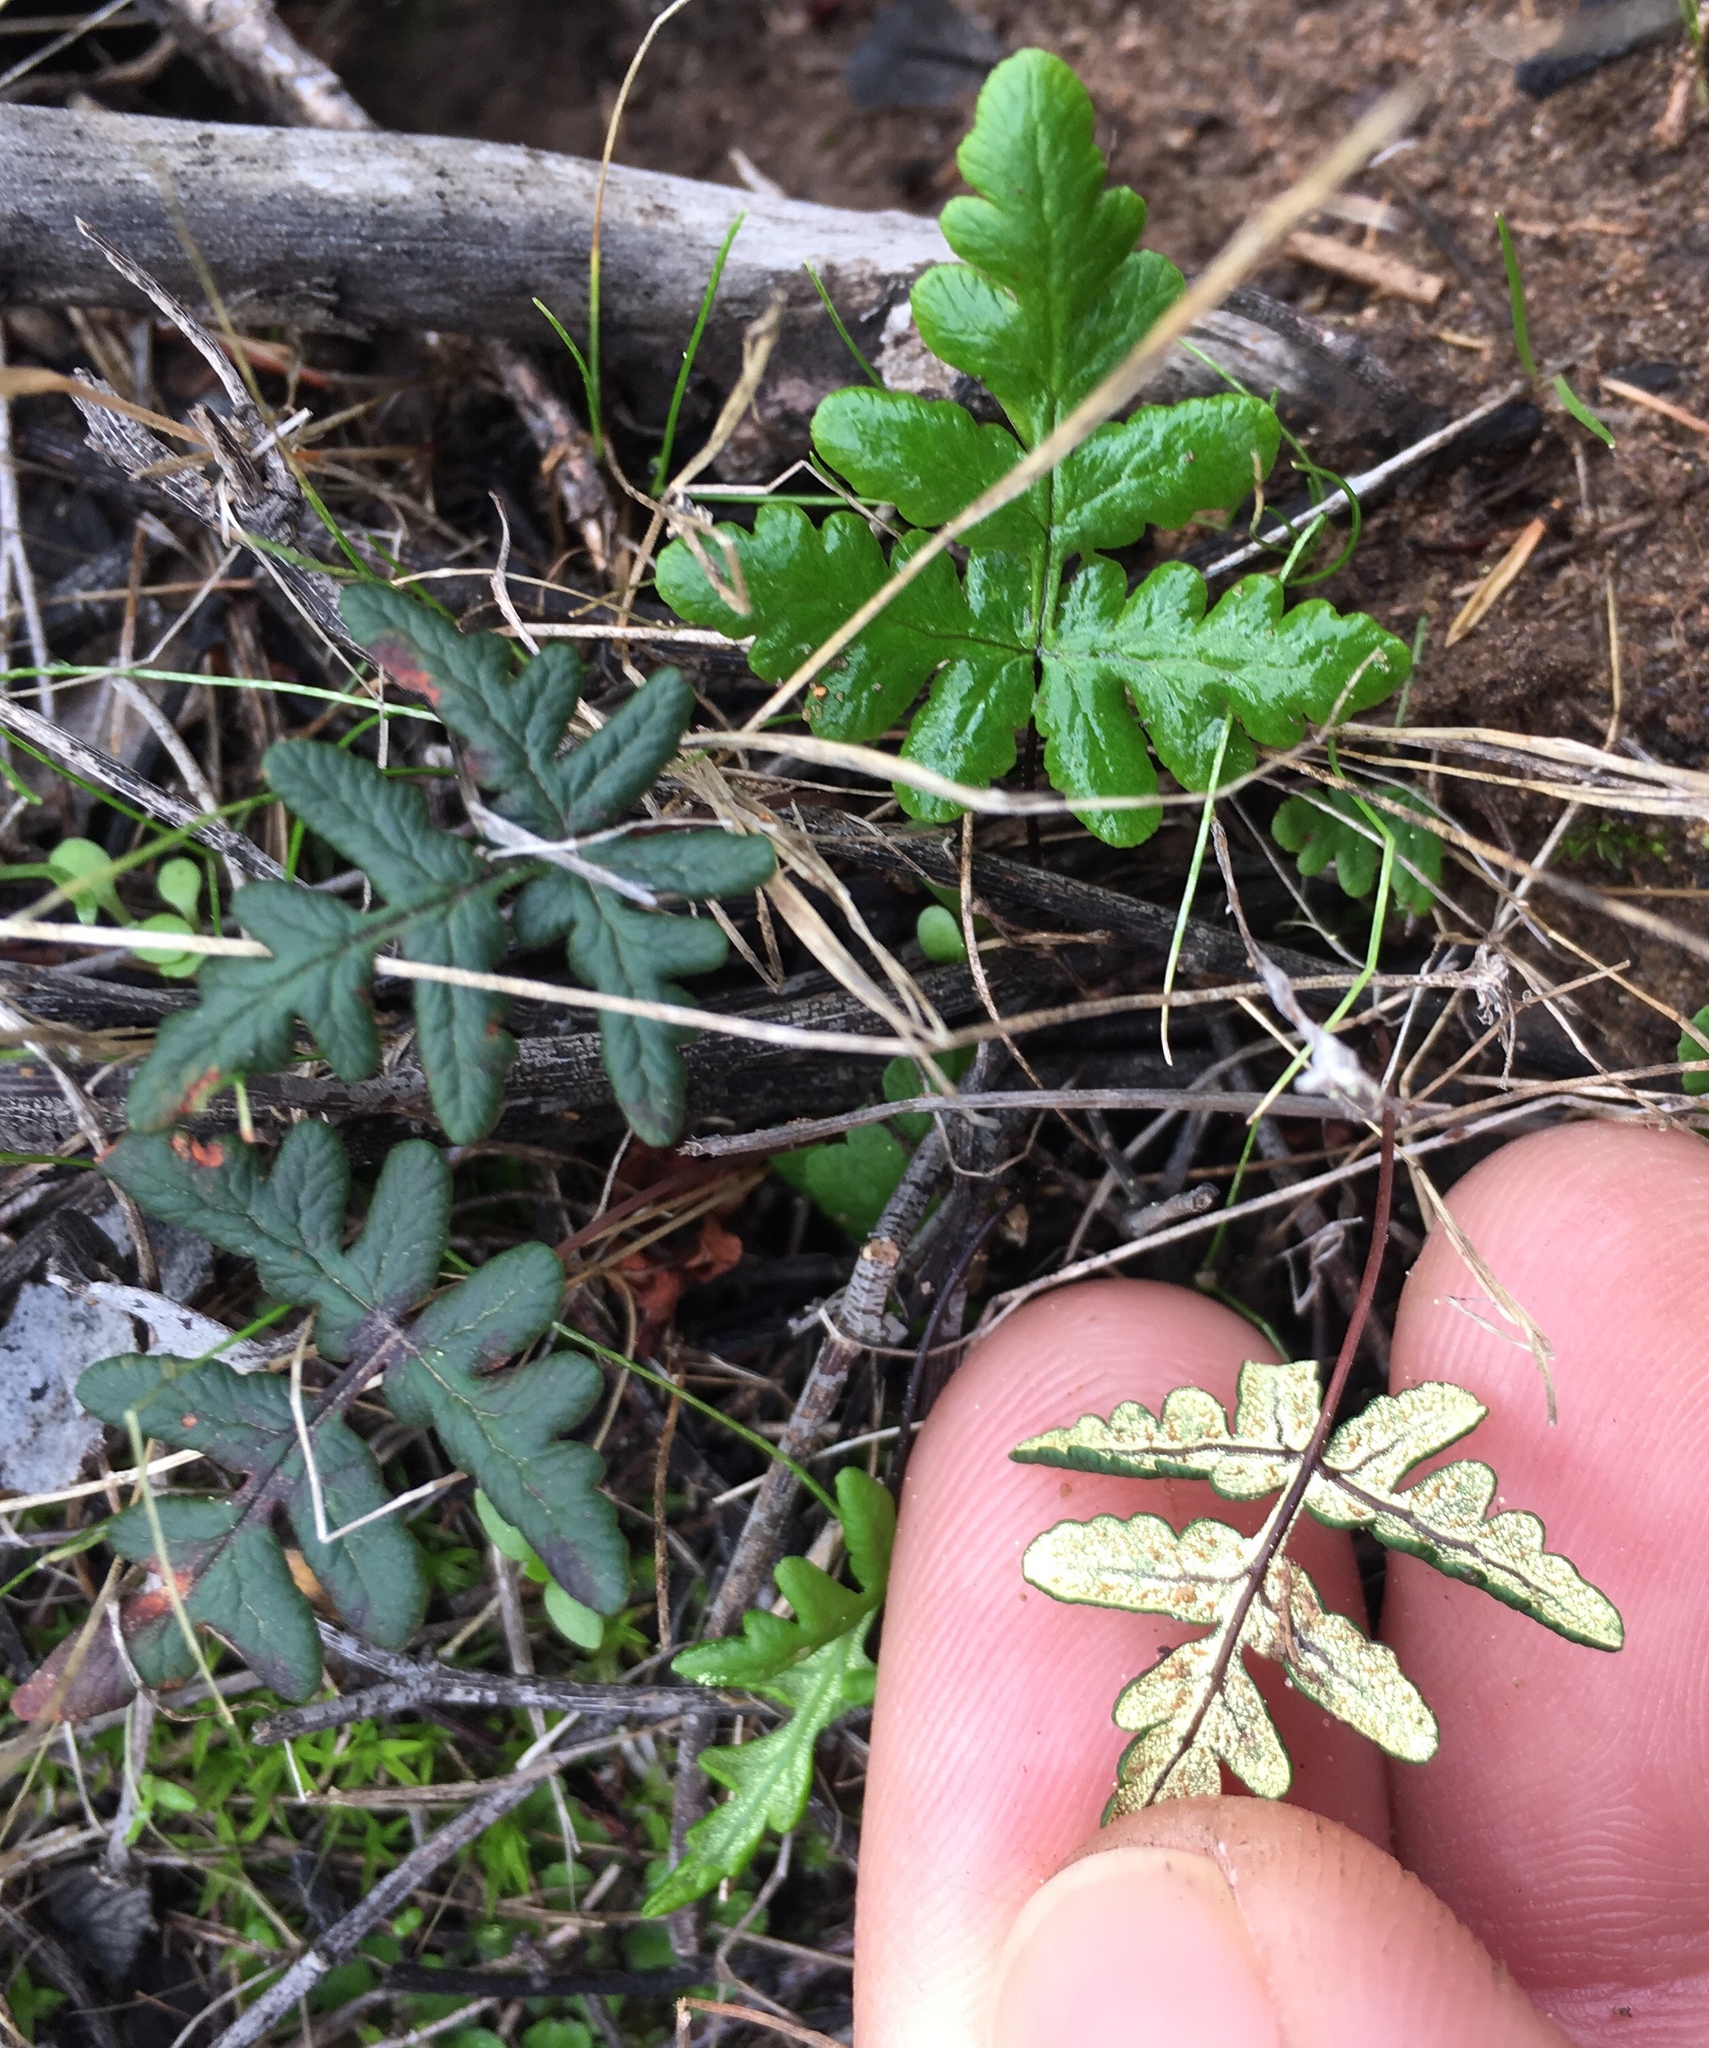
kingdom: Plantae
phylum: Tracheophyta
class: Polypodiopsida
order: Polypodiales
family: Pteridaceae
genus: Pentagramma
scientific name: Pentagramma triangularis
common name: Gold fern
